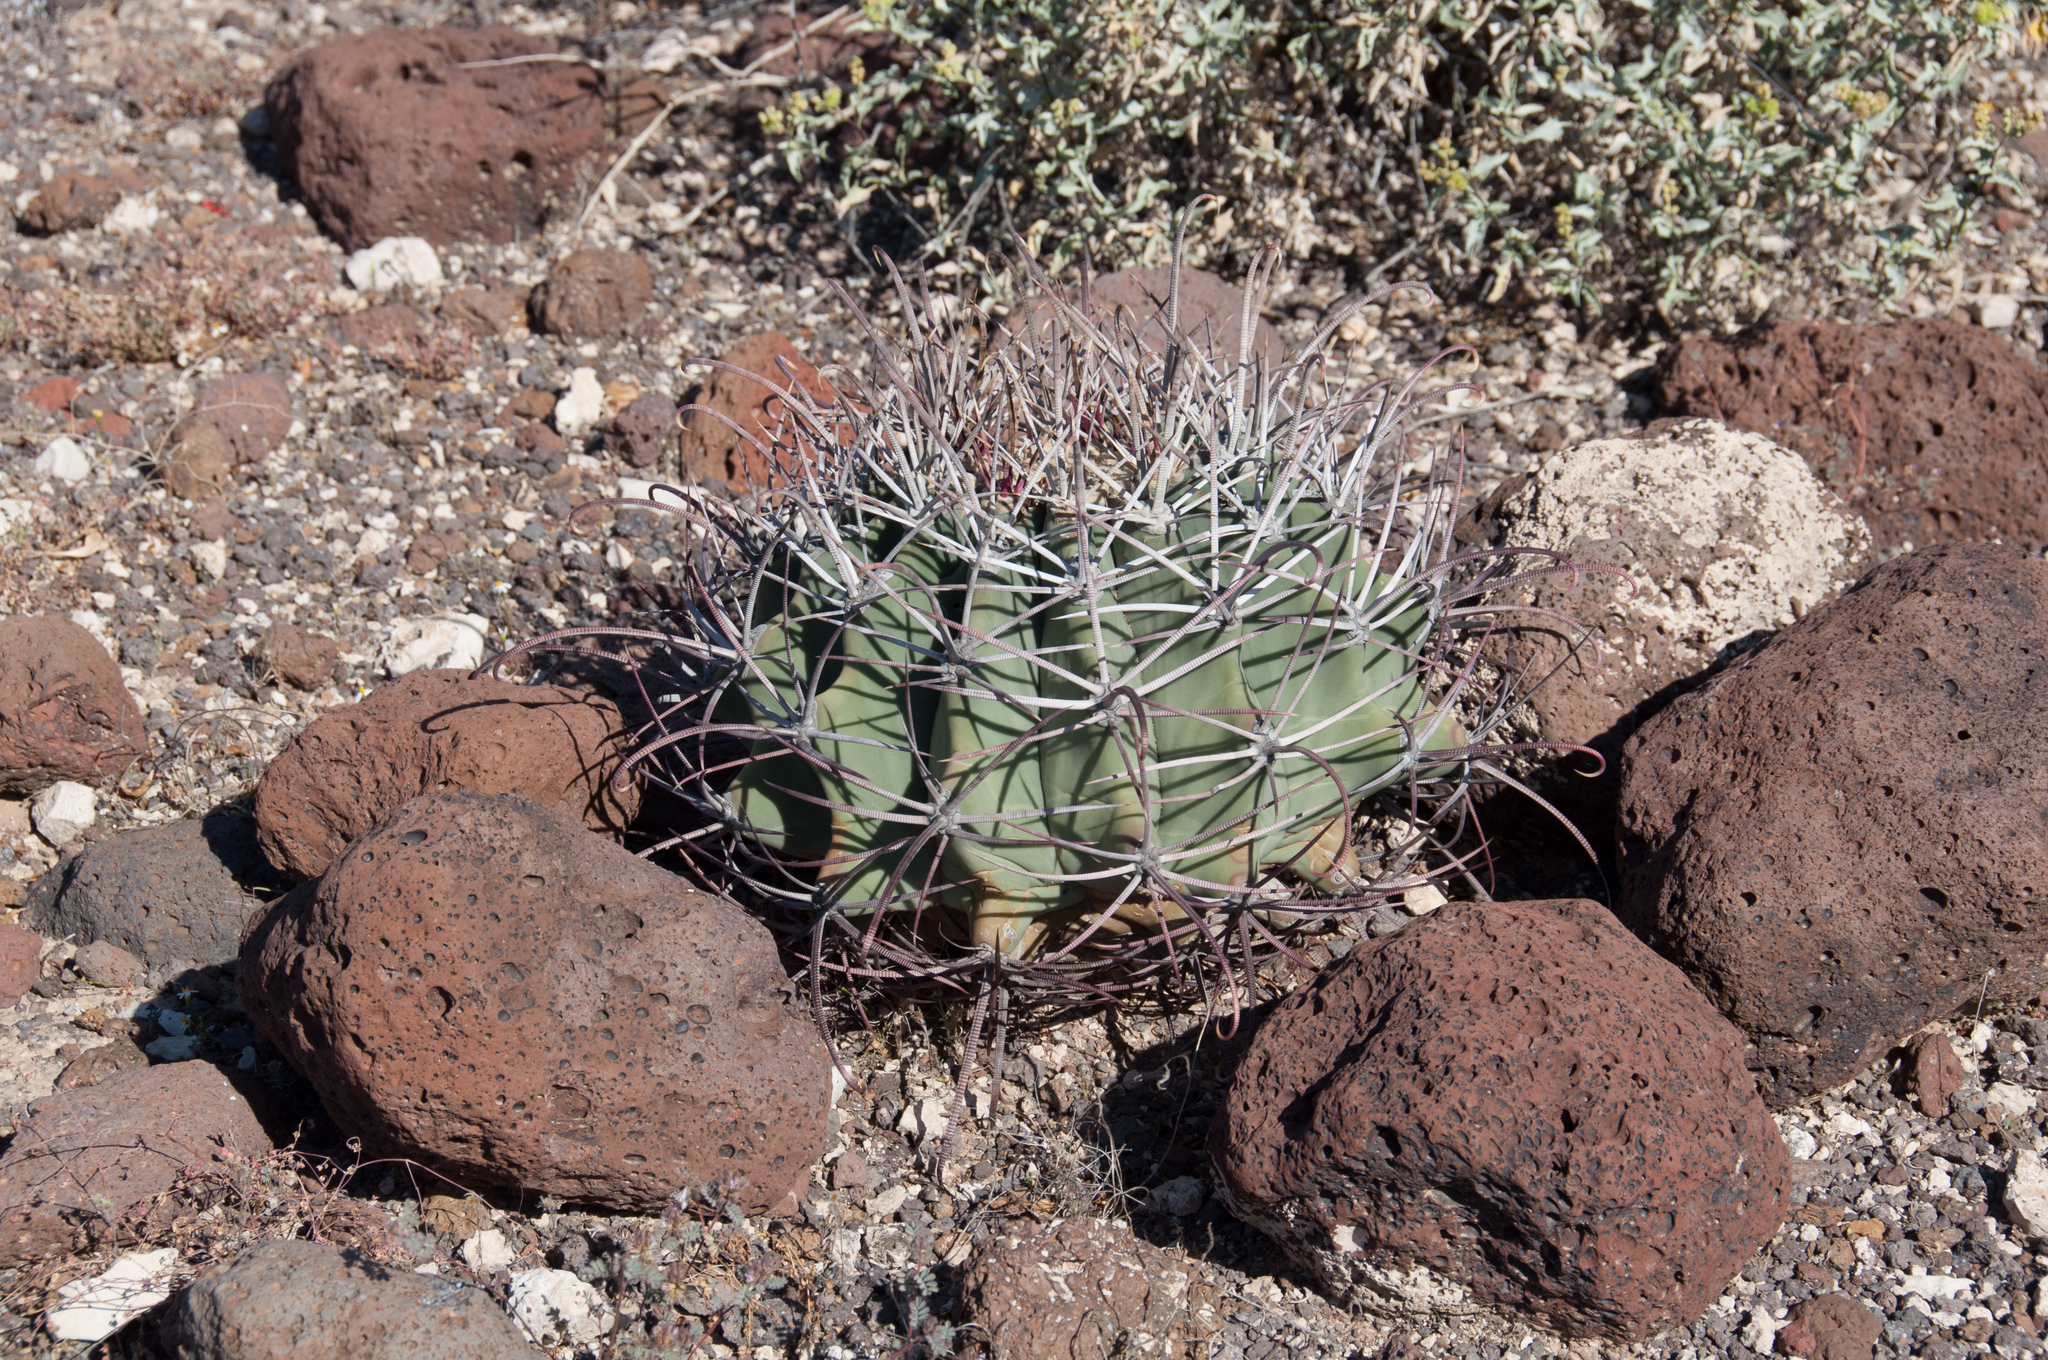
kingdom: Plantae
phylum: Tracheophyta
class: Magnoliopsida
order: Caryophyllales
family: Cactaceae
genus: Ferocactus
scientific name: Ferocactus emoryi
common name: Emory's barrel cactus
